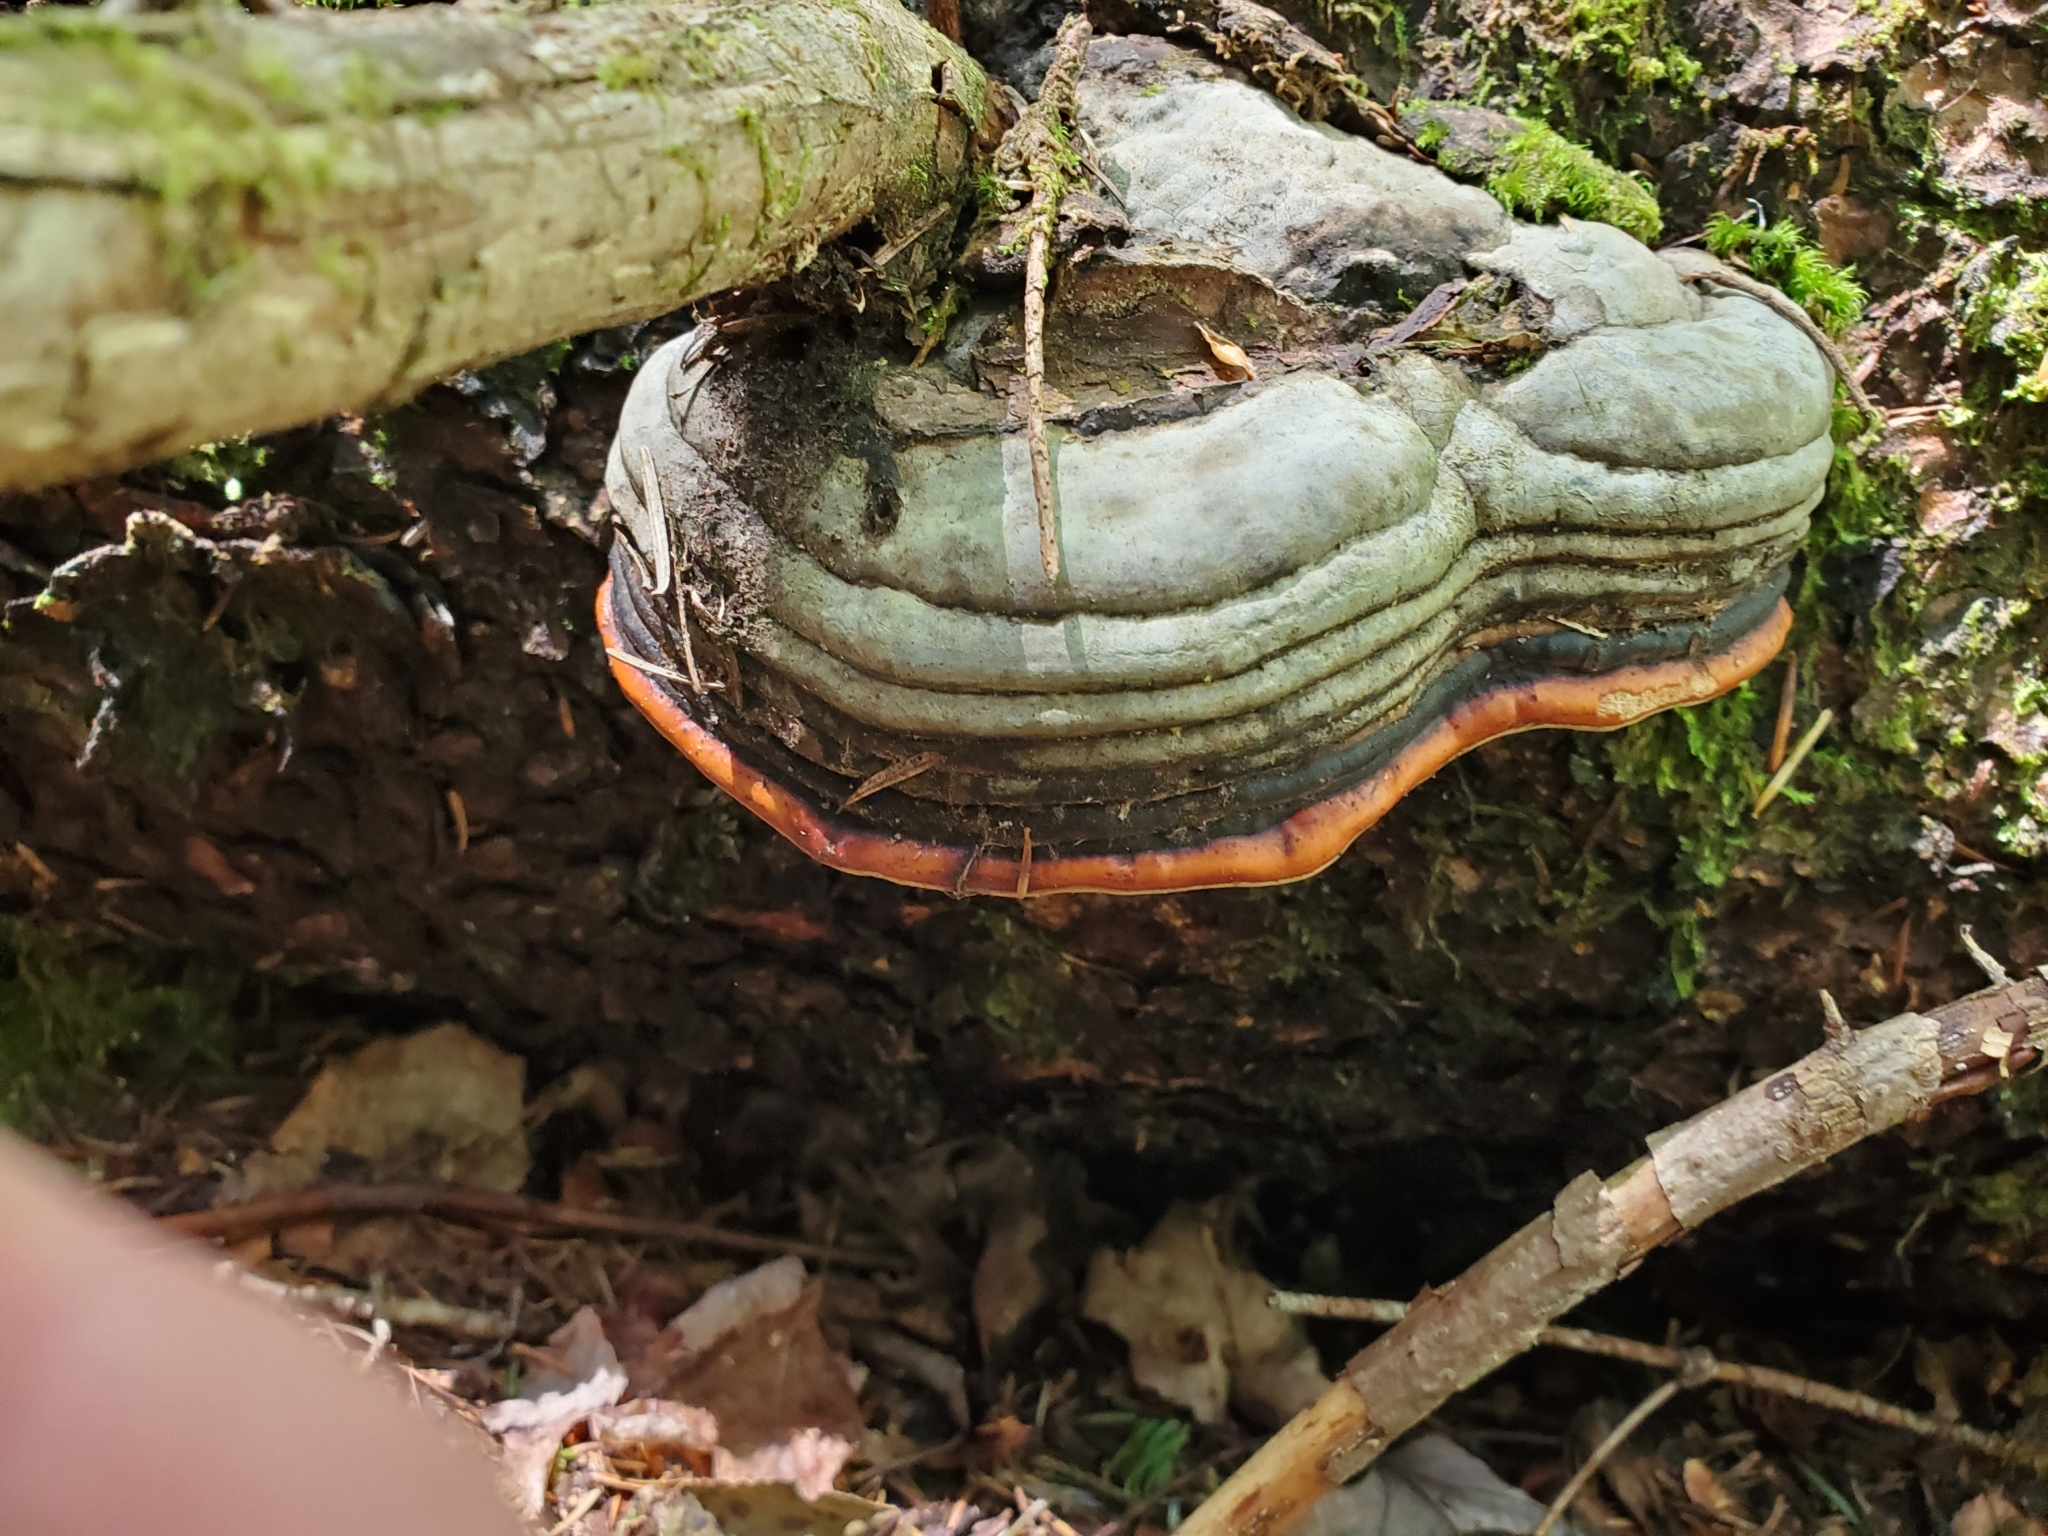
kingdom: Fungi
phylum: Basidiomycota
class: Agaricomycetes
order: Polyporales
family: Fomitopsidaceae
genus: Fomitopsis
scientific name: Fomitopsis mounceae
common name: Northern red belt
